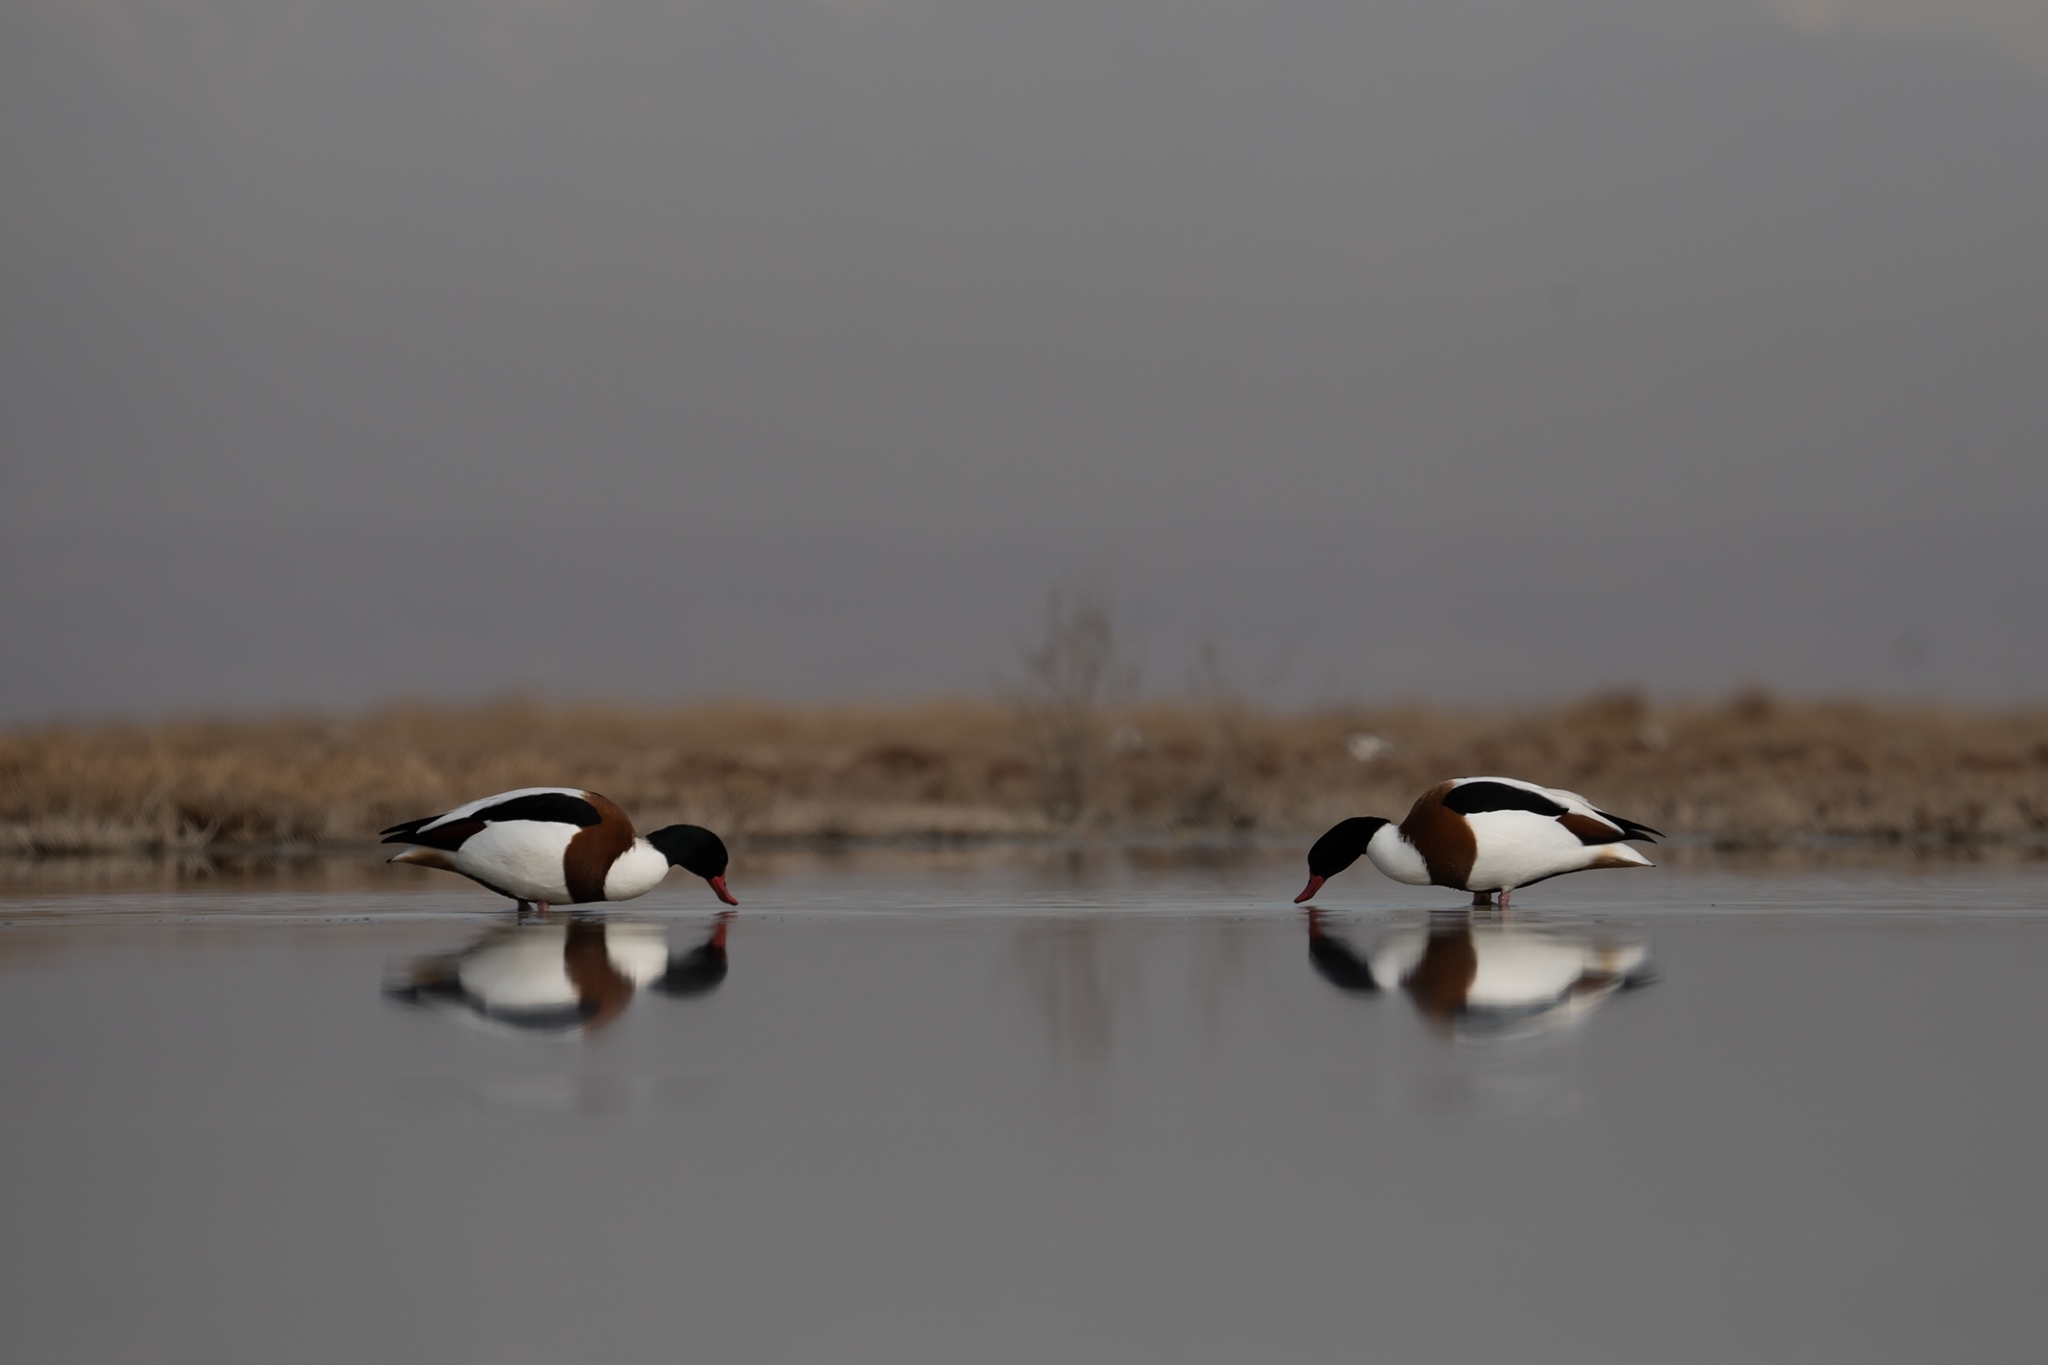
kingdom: Animalia
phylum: Chordata
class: Aves
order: Anseriformes
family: Anatidae
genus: Tadorna
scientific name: Tadorna tadorna
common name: Common shelduck
